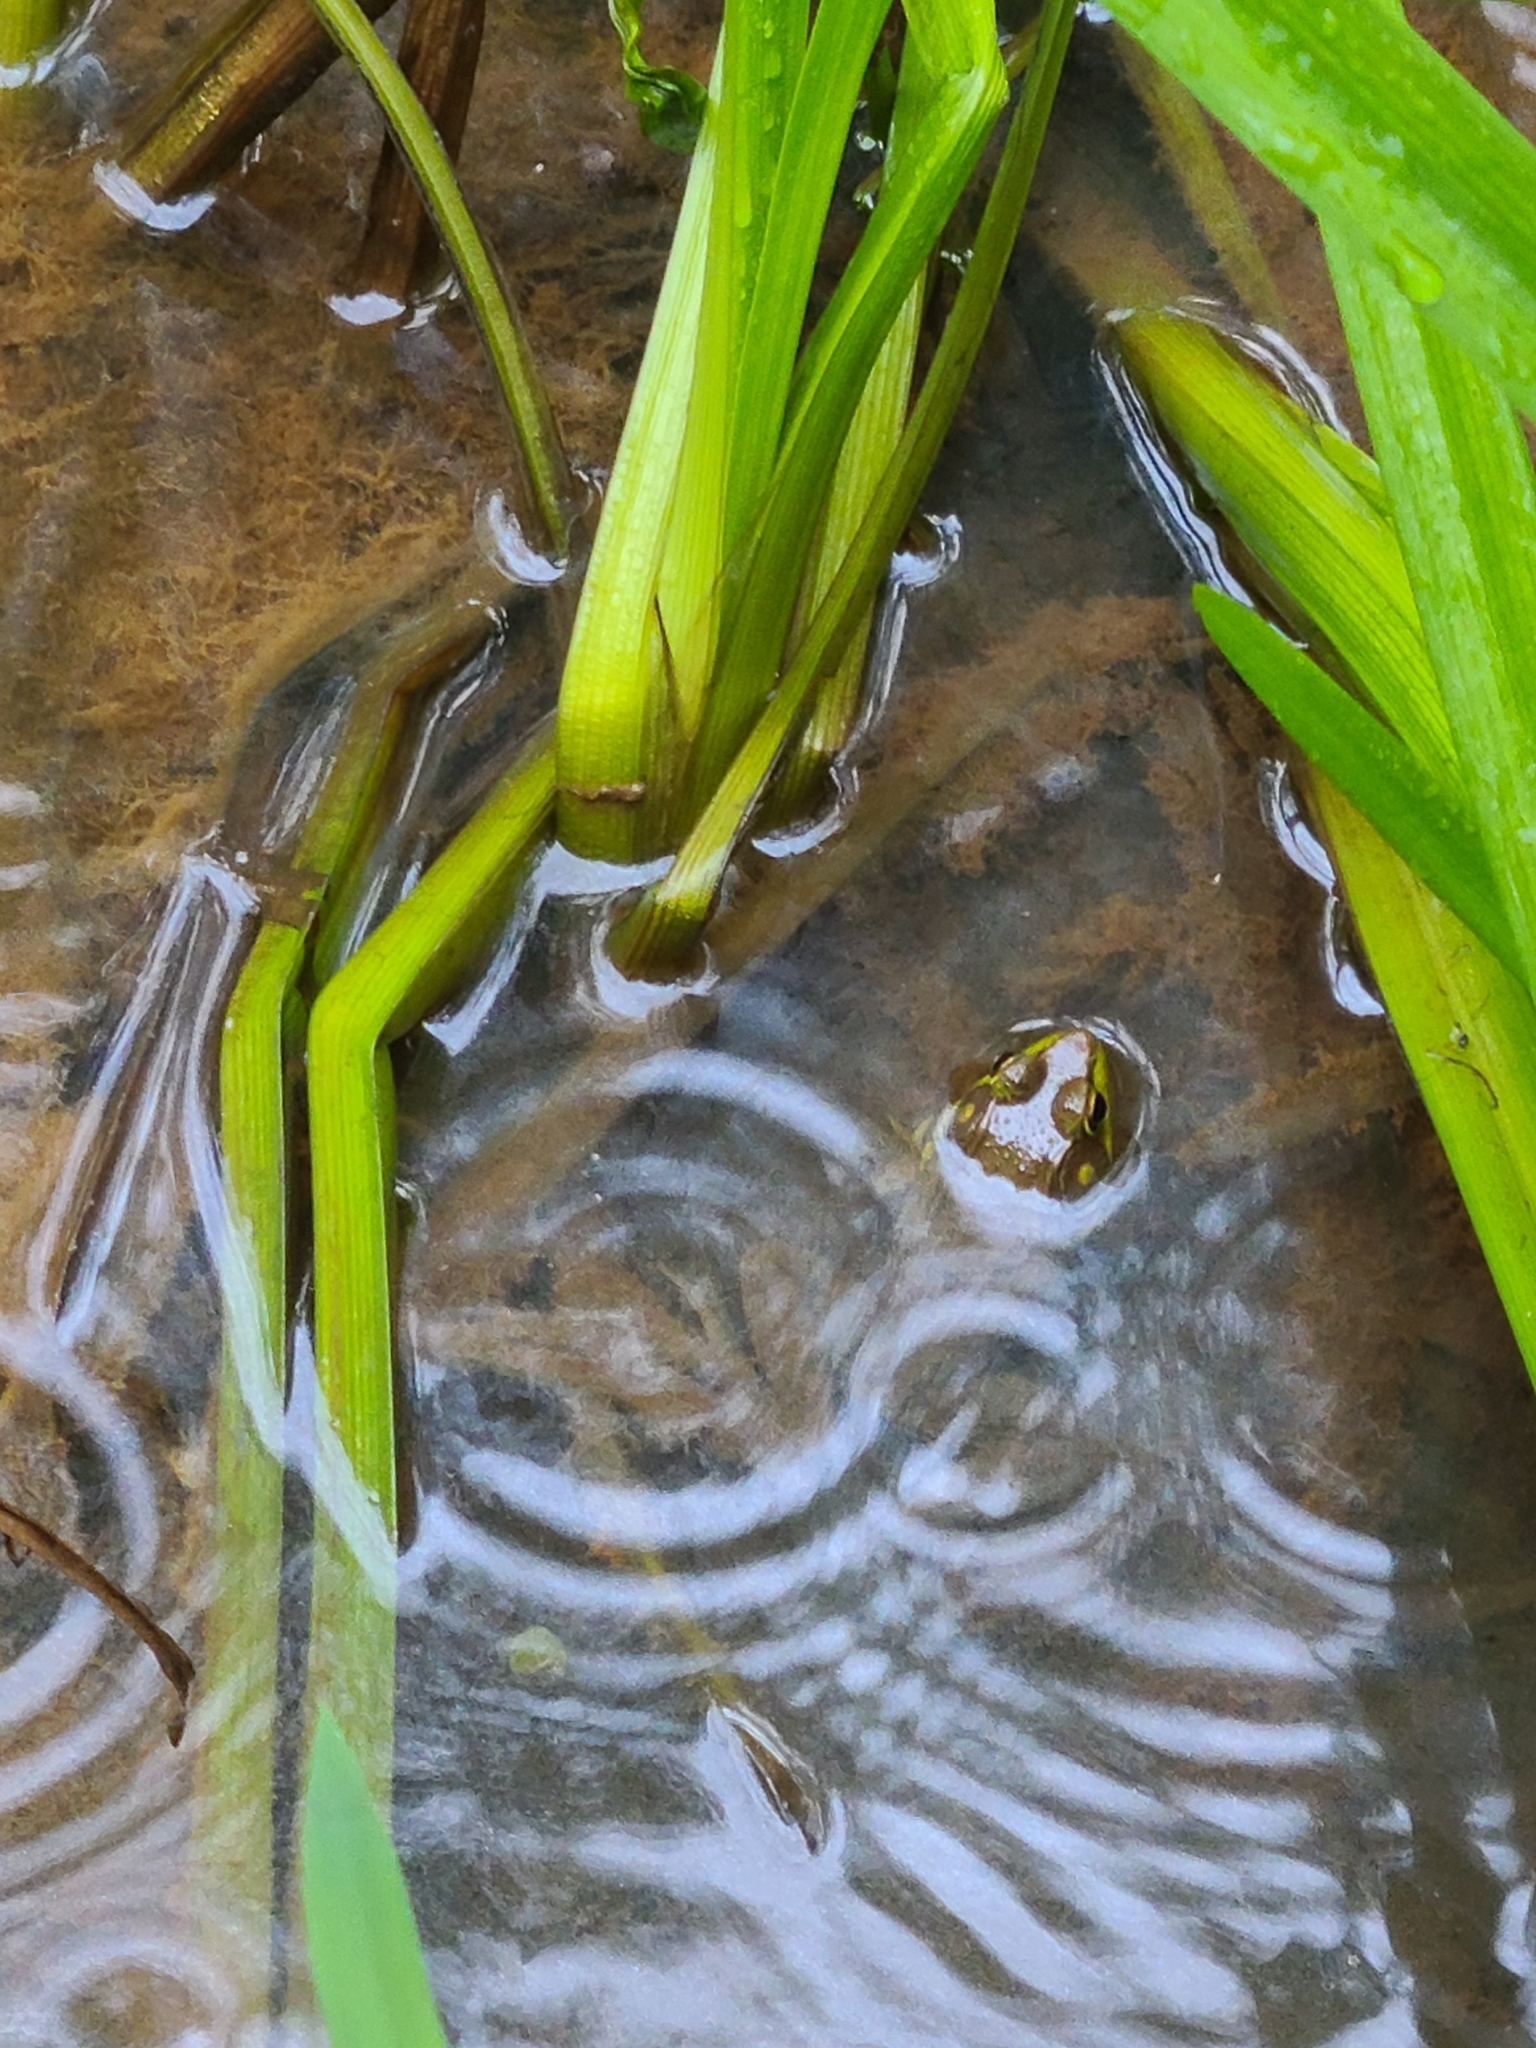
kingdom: Animalia
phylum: Chordata
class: Amphibia
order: Anura
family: Ranidae
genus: Lithobates
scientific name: Lithobates clamitans
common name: Green frog
